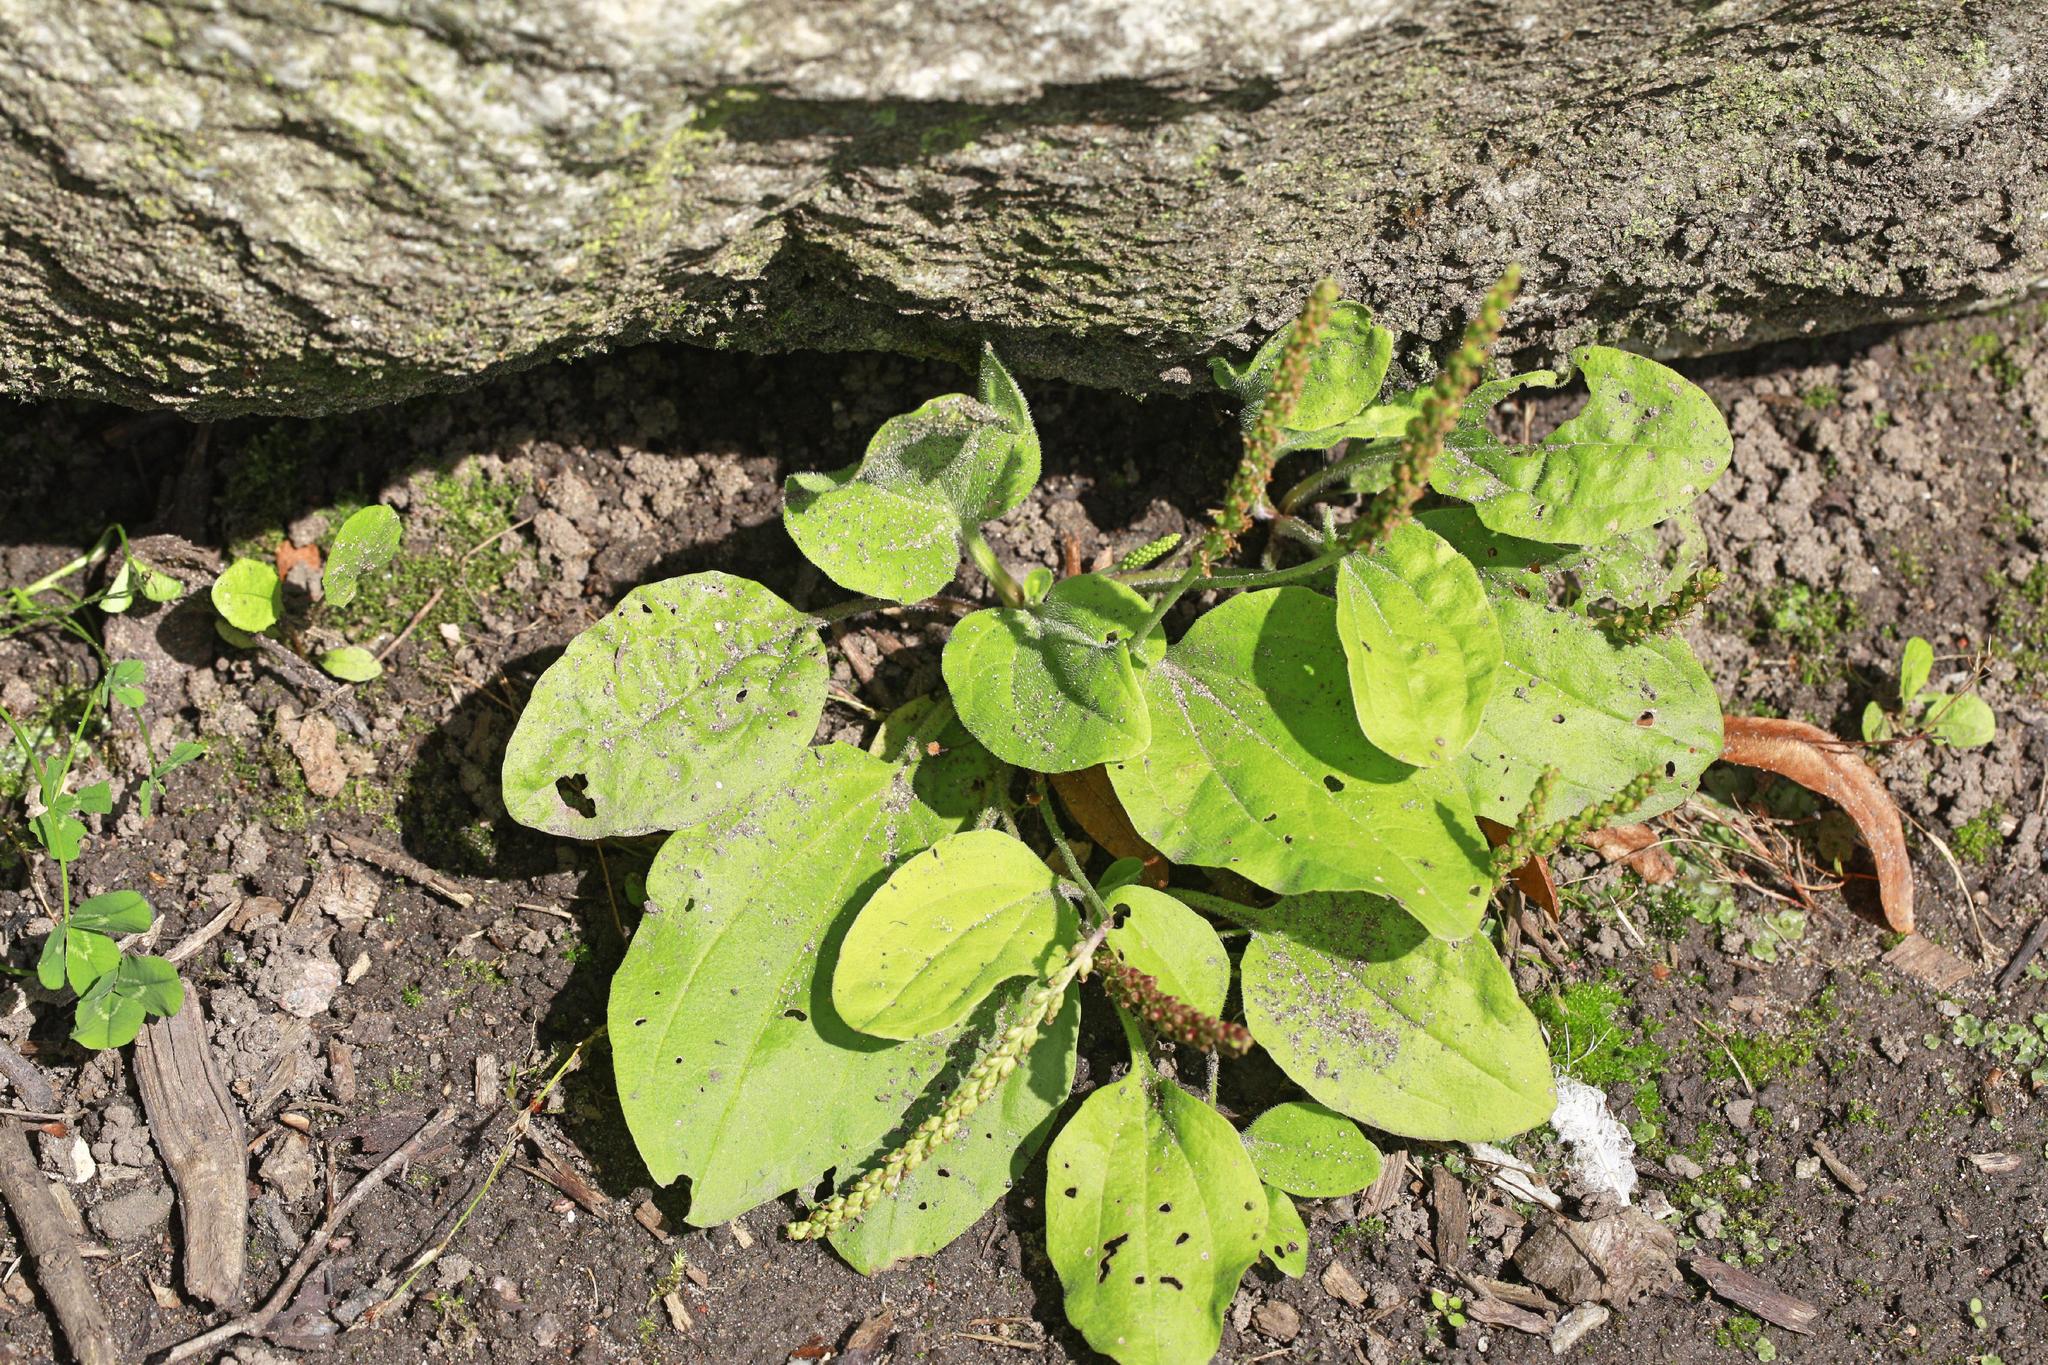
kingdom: Plantae
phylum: Tracheophyta
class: Magnoliopsida
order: Lamiales
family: Plantaginaceae
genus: Plantago
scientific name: Plantago major
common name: Common plantain
